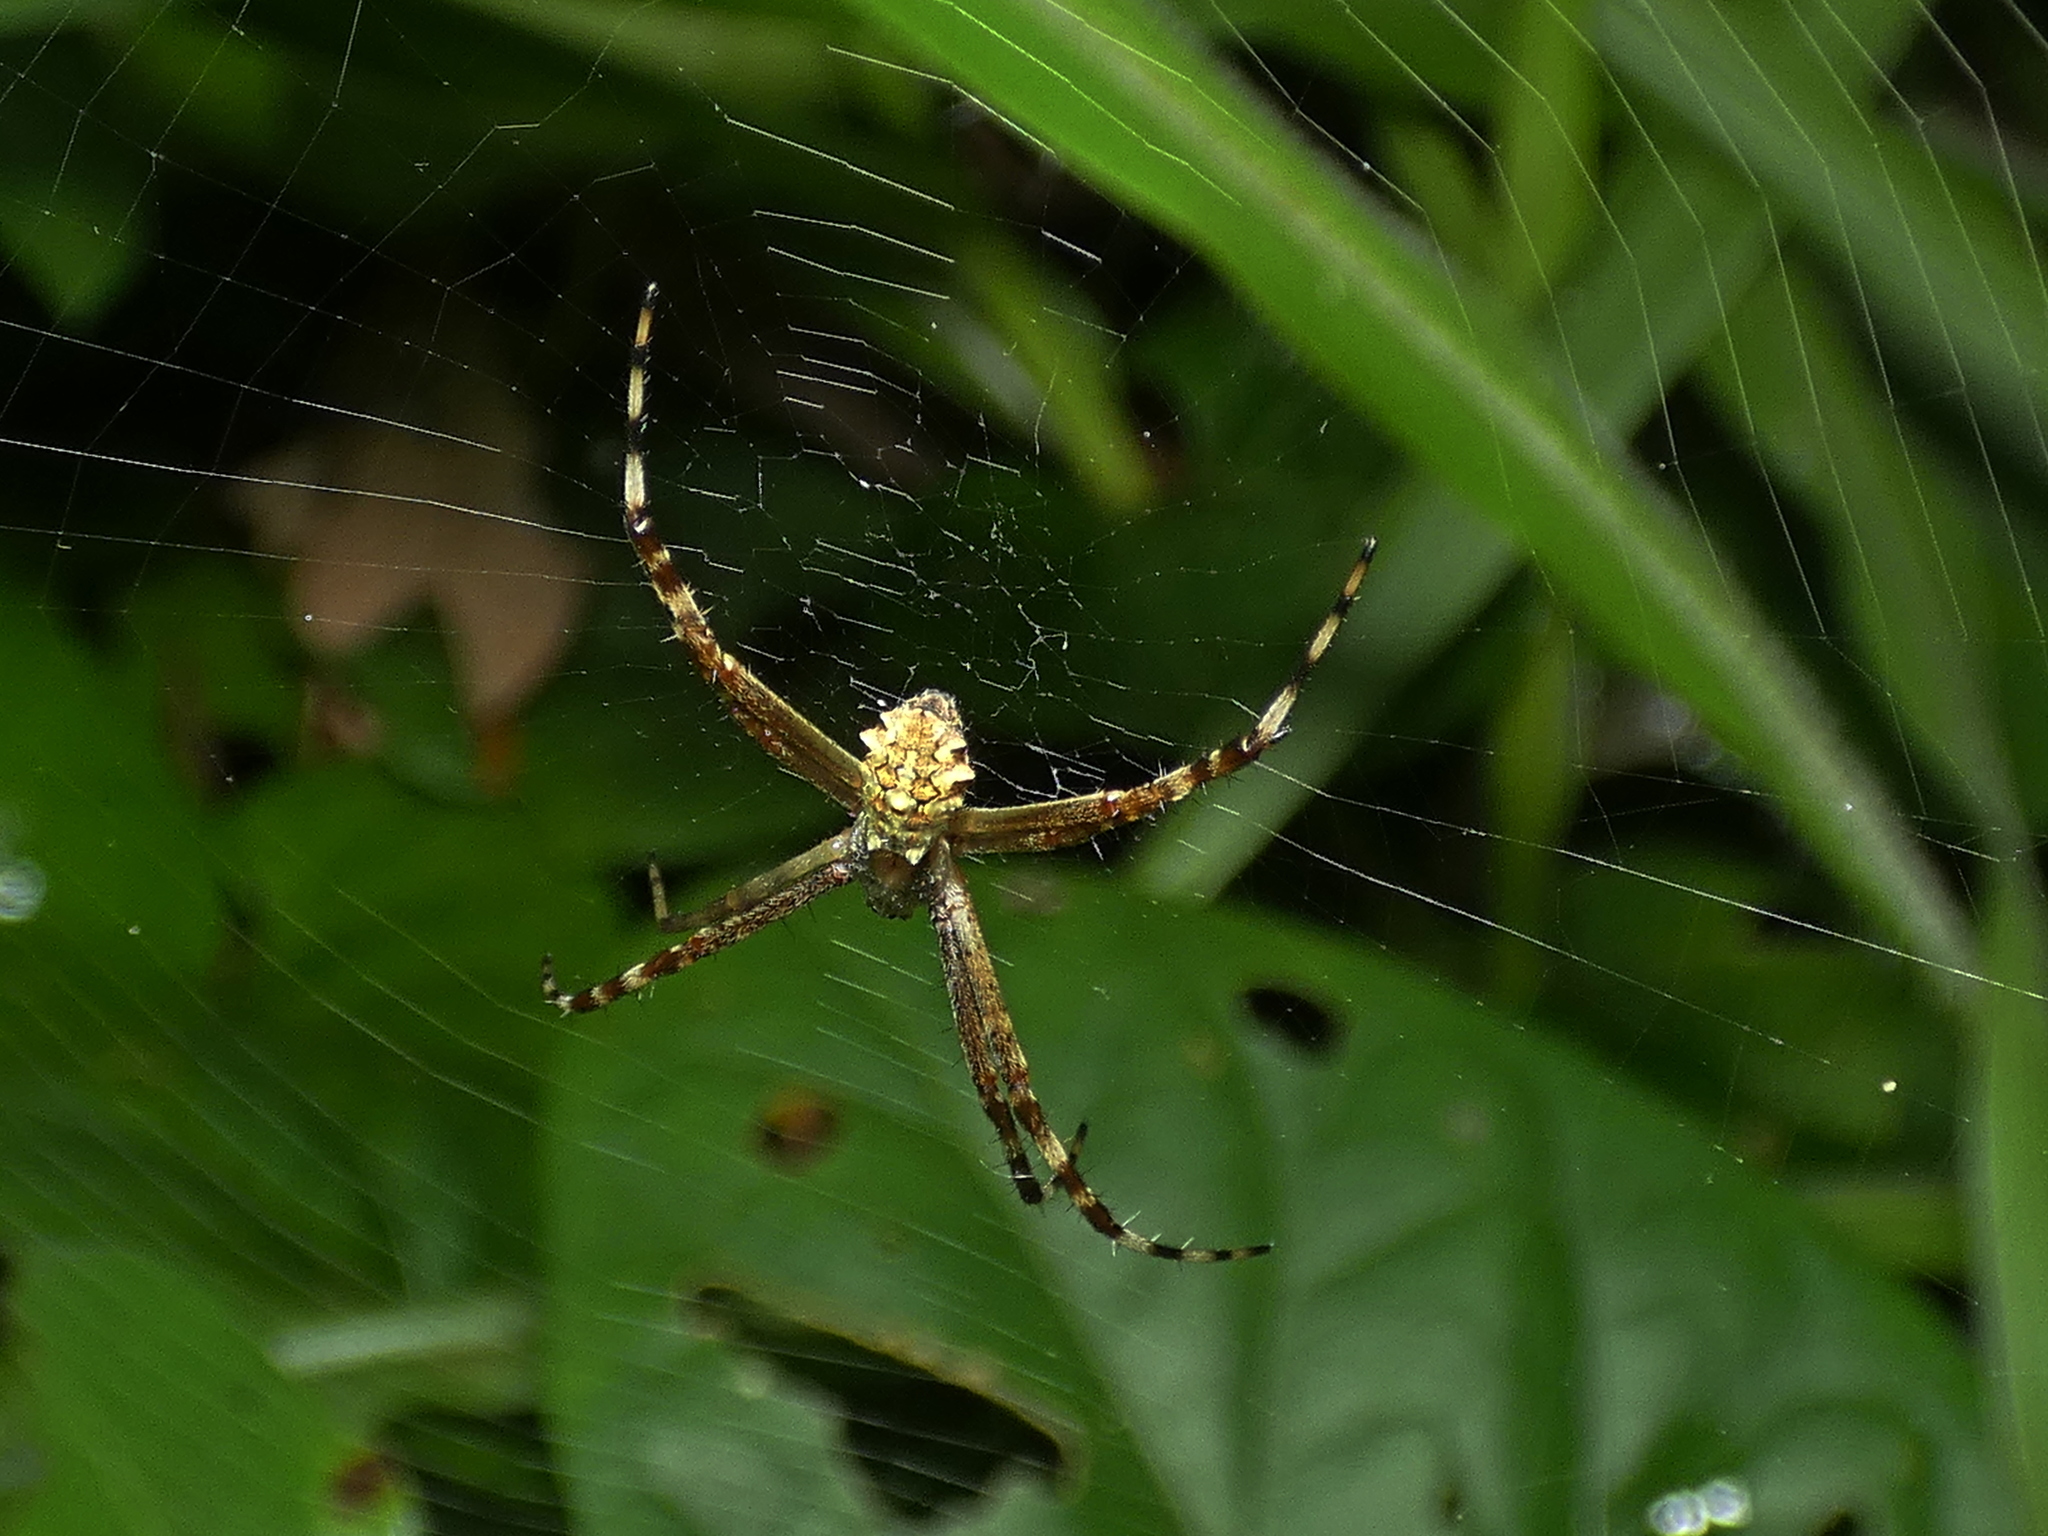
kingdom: Animalia
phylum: Arthropoda
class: Arachnida
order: Araneae
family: Araneidae
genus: Argiope
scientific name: Argiope argentata
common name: Orb weavers
